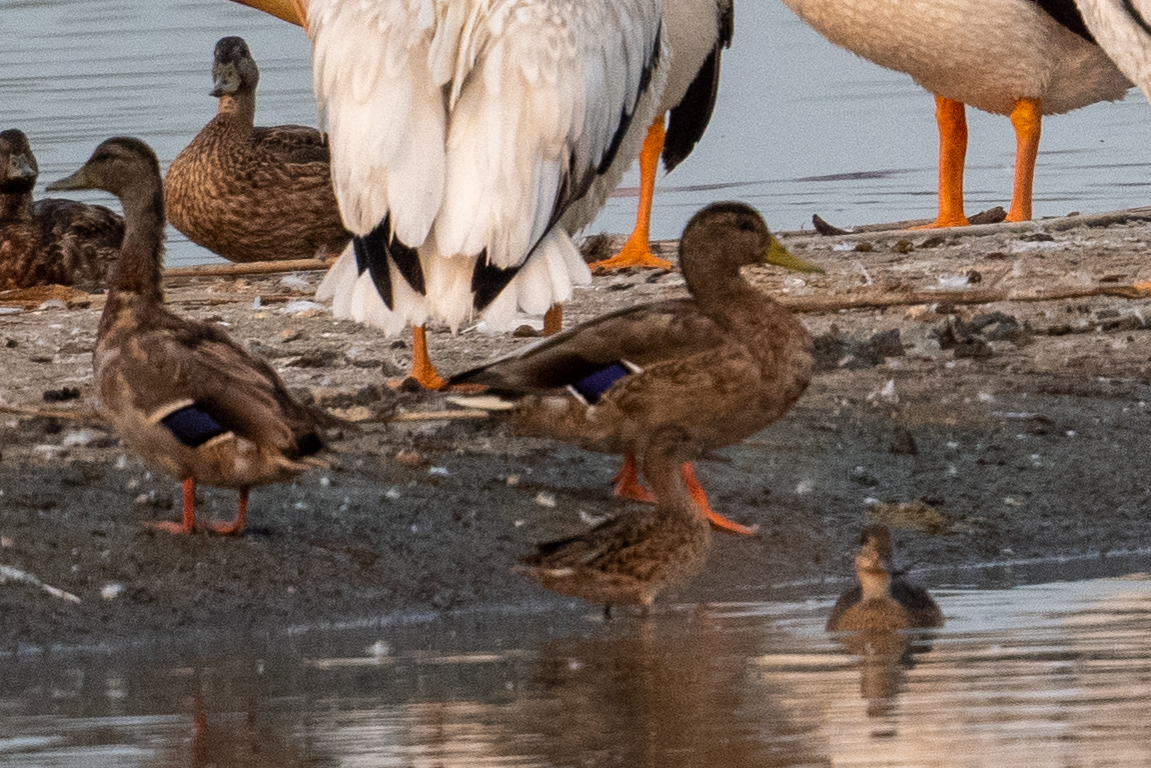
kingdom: Animalia
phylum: Chordata
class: Aves
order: Anseriformes
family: Anatidae
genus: Anas
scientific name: Anas platyrhynchos
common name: Mallard
